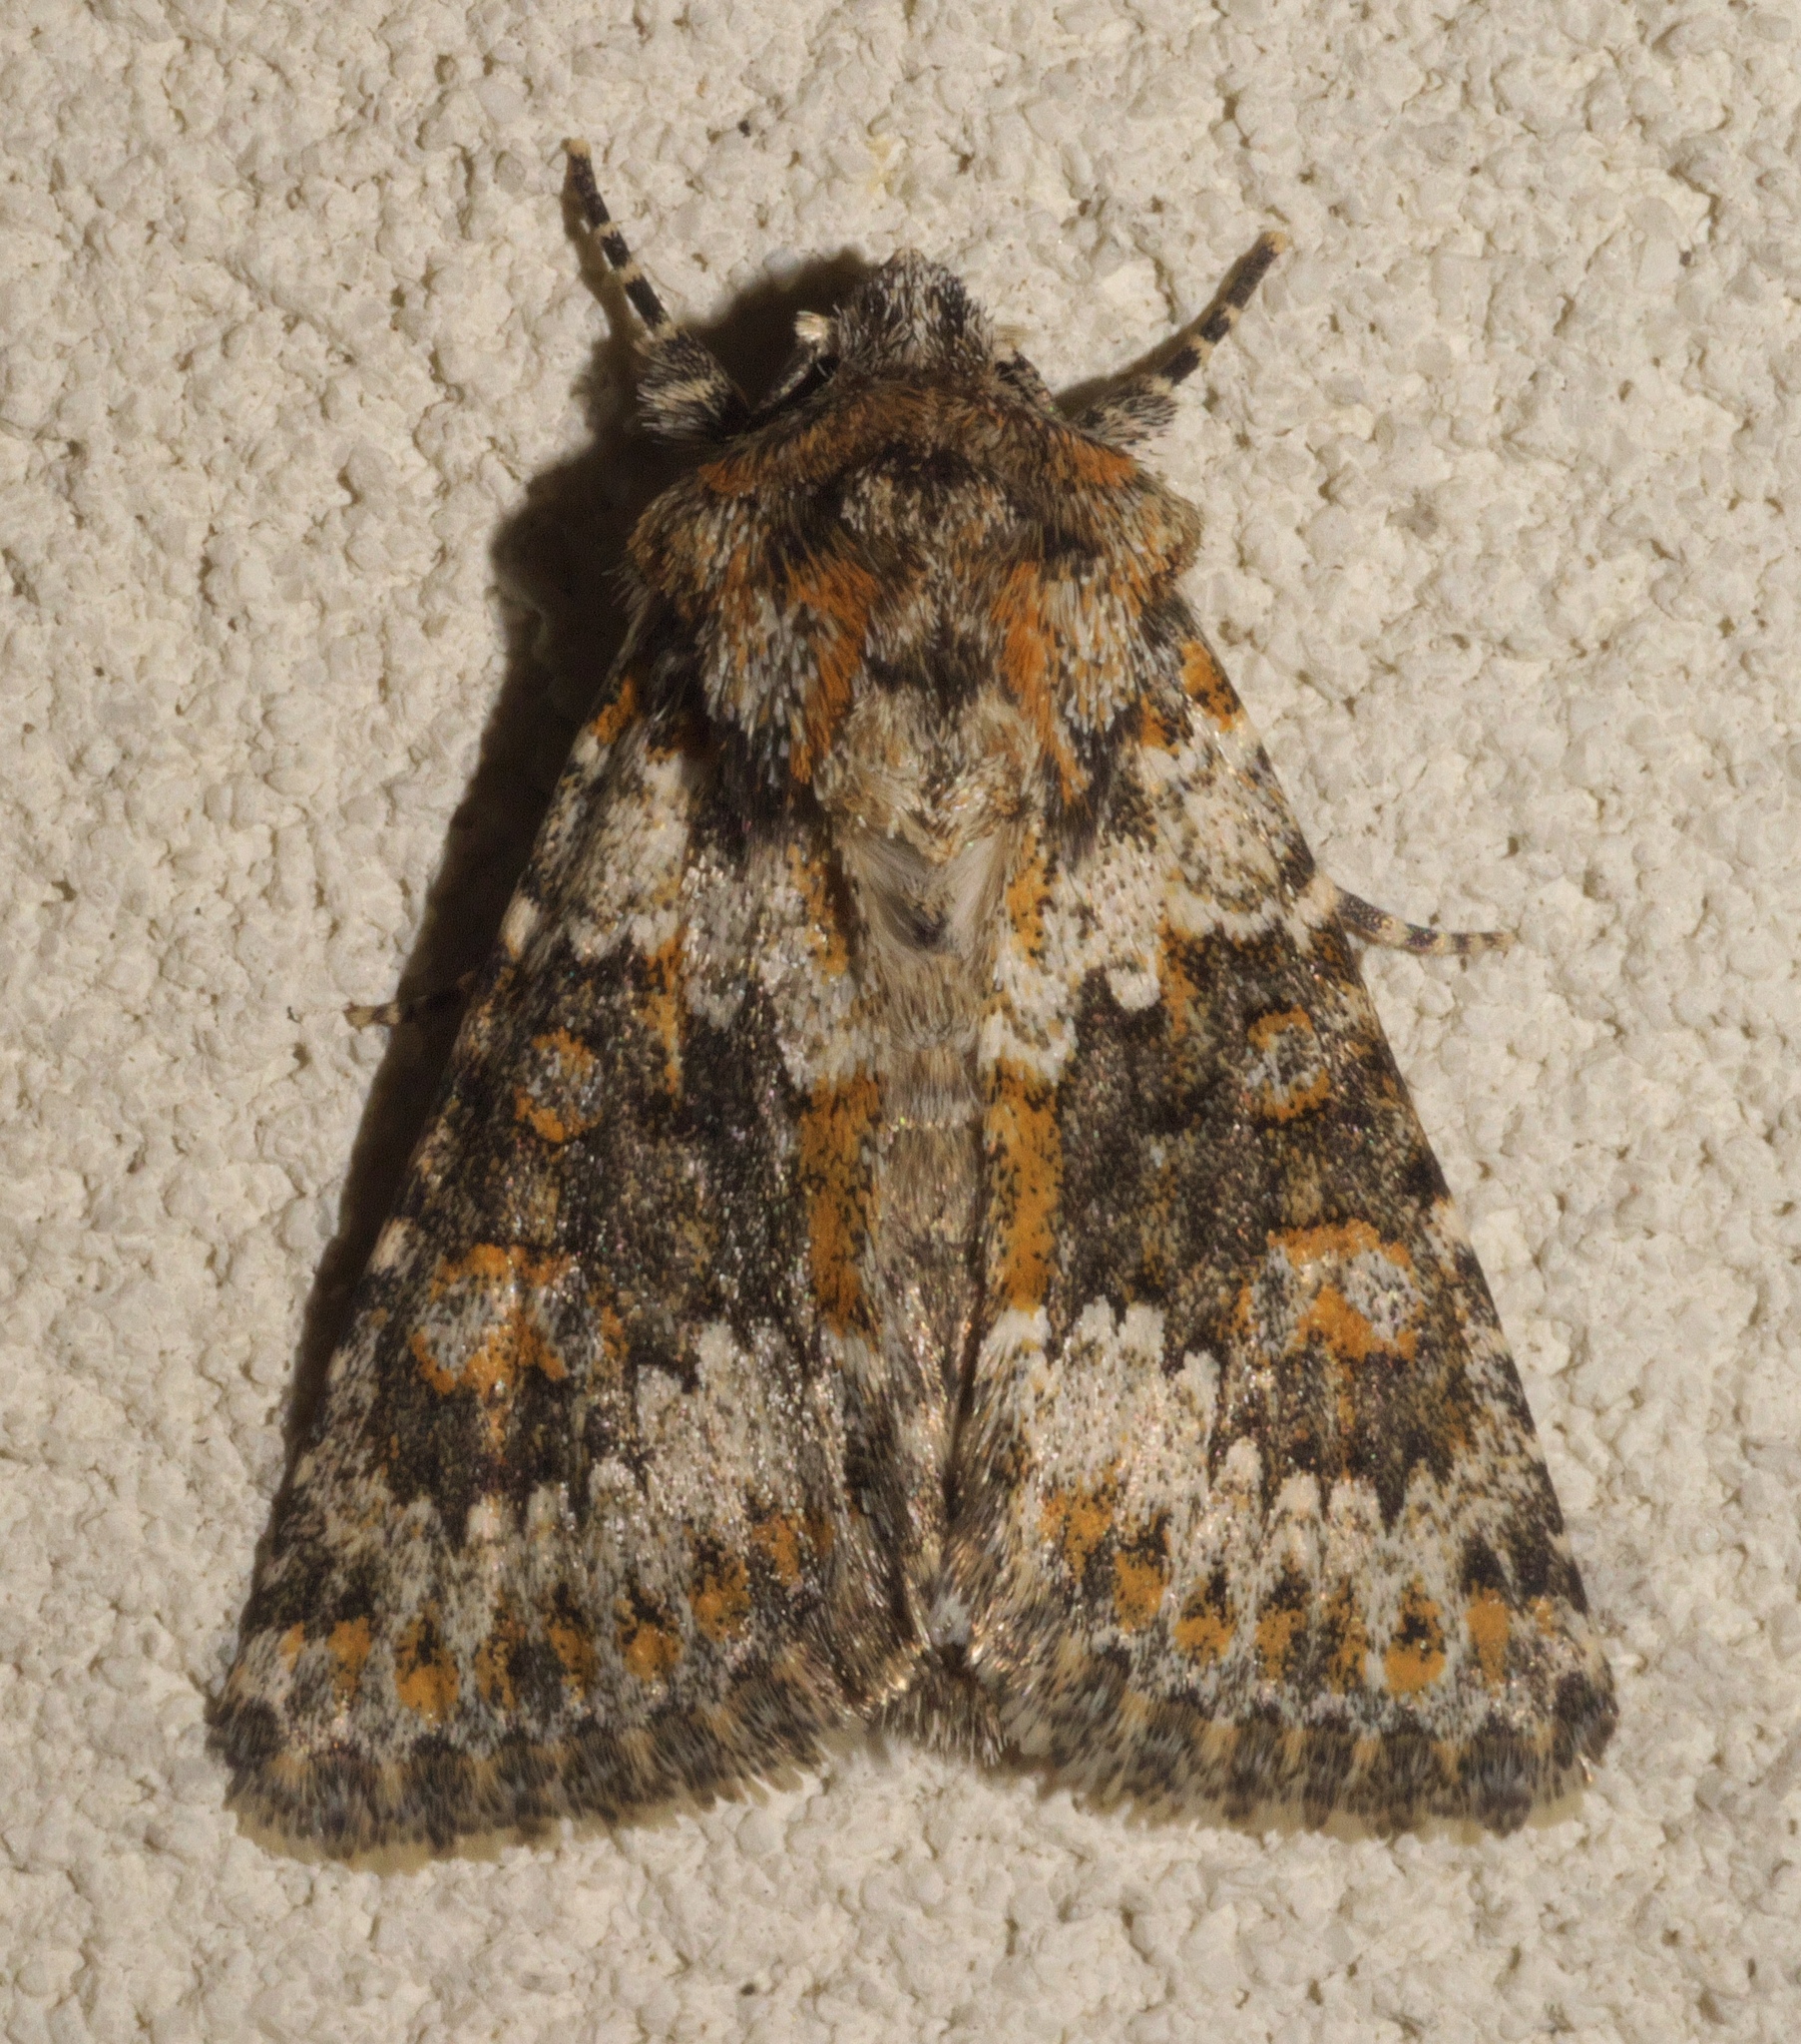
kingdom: Animalia
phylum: Arthropoda
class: Insecta
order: Lepidoptera
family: Noctuidae
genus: Hecatera
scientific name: Hecatera dysodea
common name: Small ranunculus
